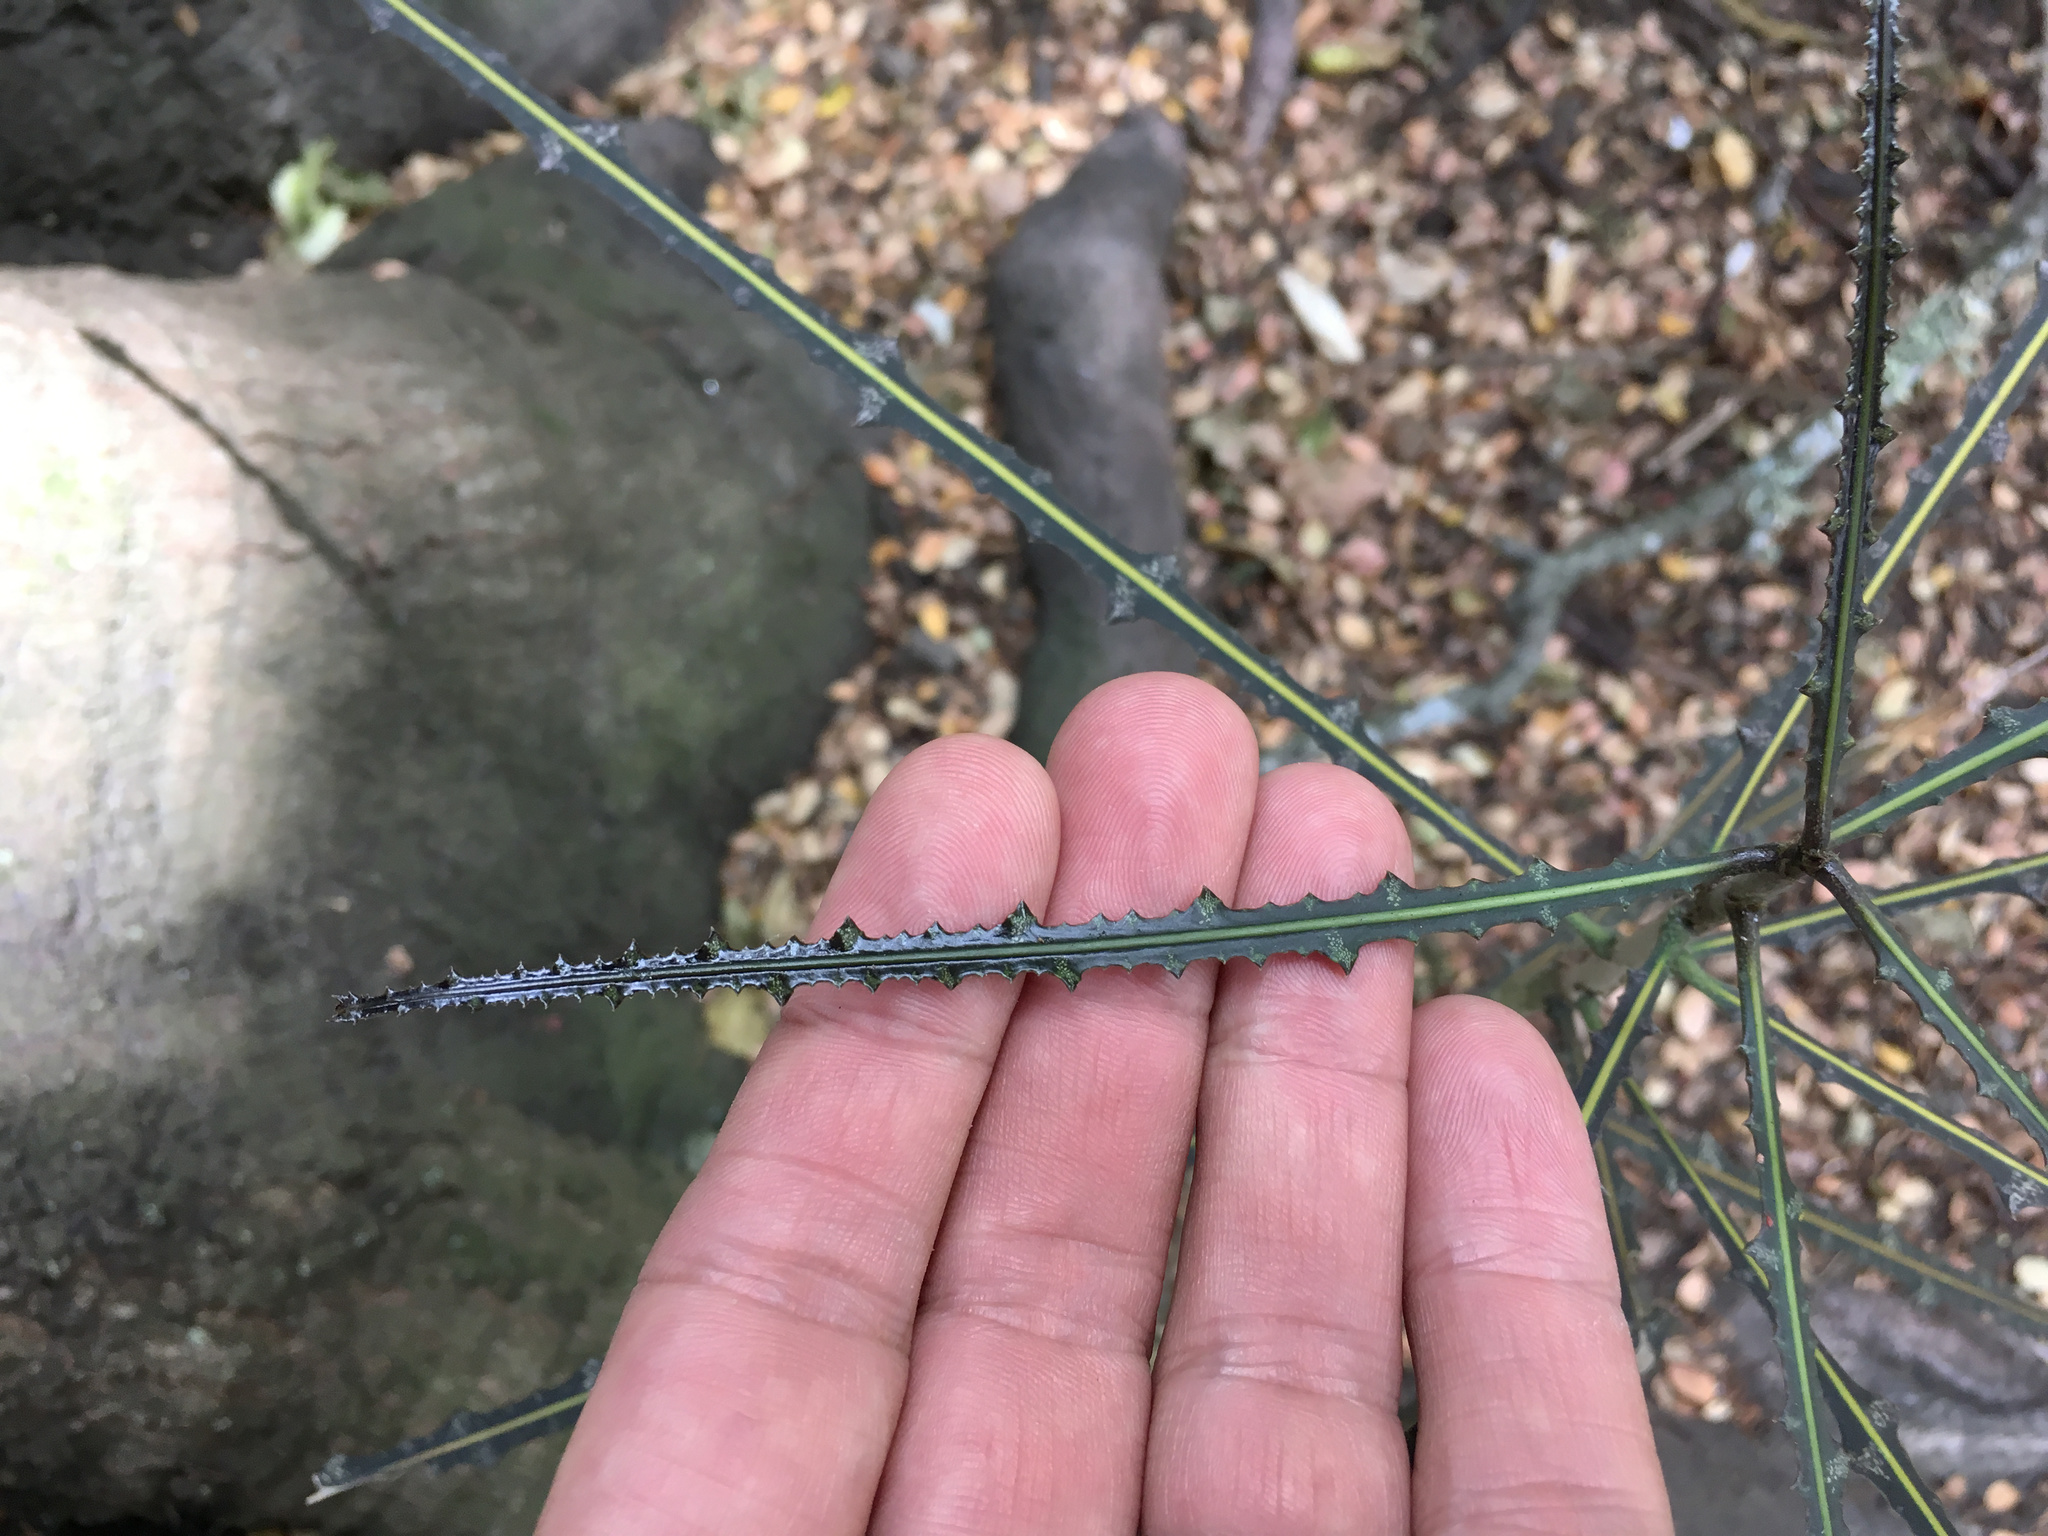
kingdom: Plantae
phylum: Tracheophyta
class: Magnoliopsida
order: Apiales
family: Araliaceae
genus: Pseudopanax
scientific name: Pseudopanax ferox
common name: Fierce lancewood
